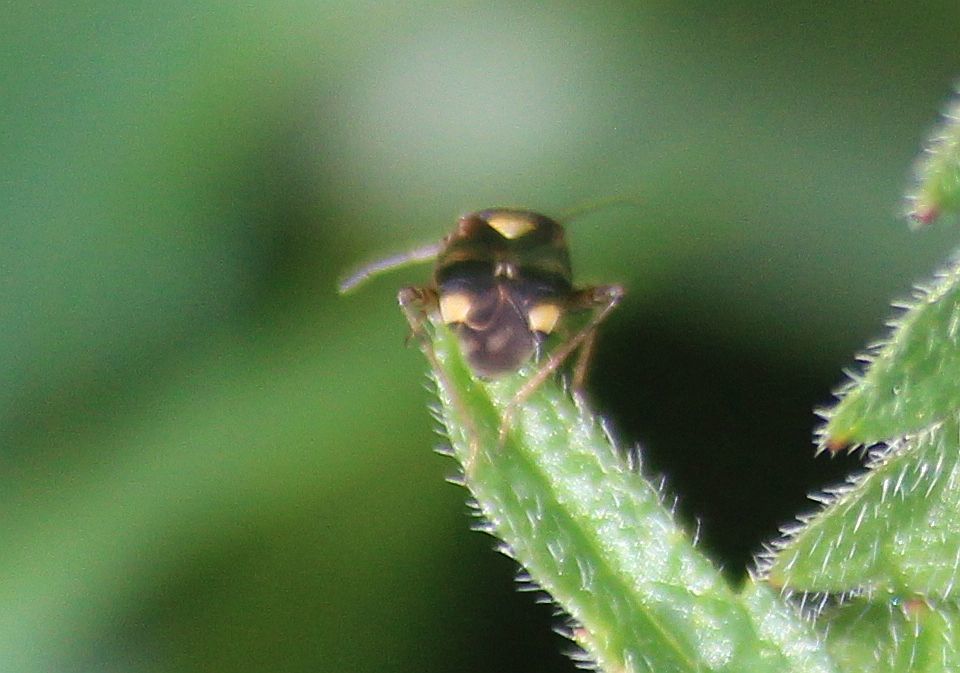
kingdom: Animalia
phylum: Arthropoda
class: Insecta
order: Hemiptera
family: Miridae
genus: Liocoris
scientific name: Liocoris tripustulatus
